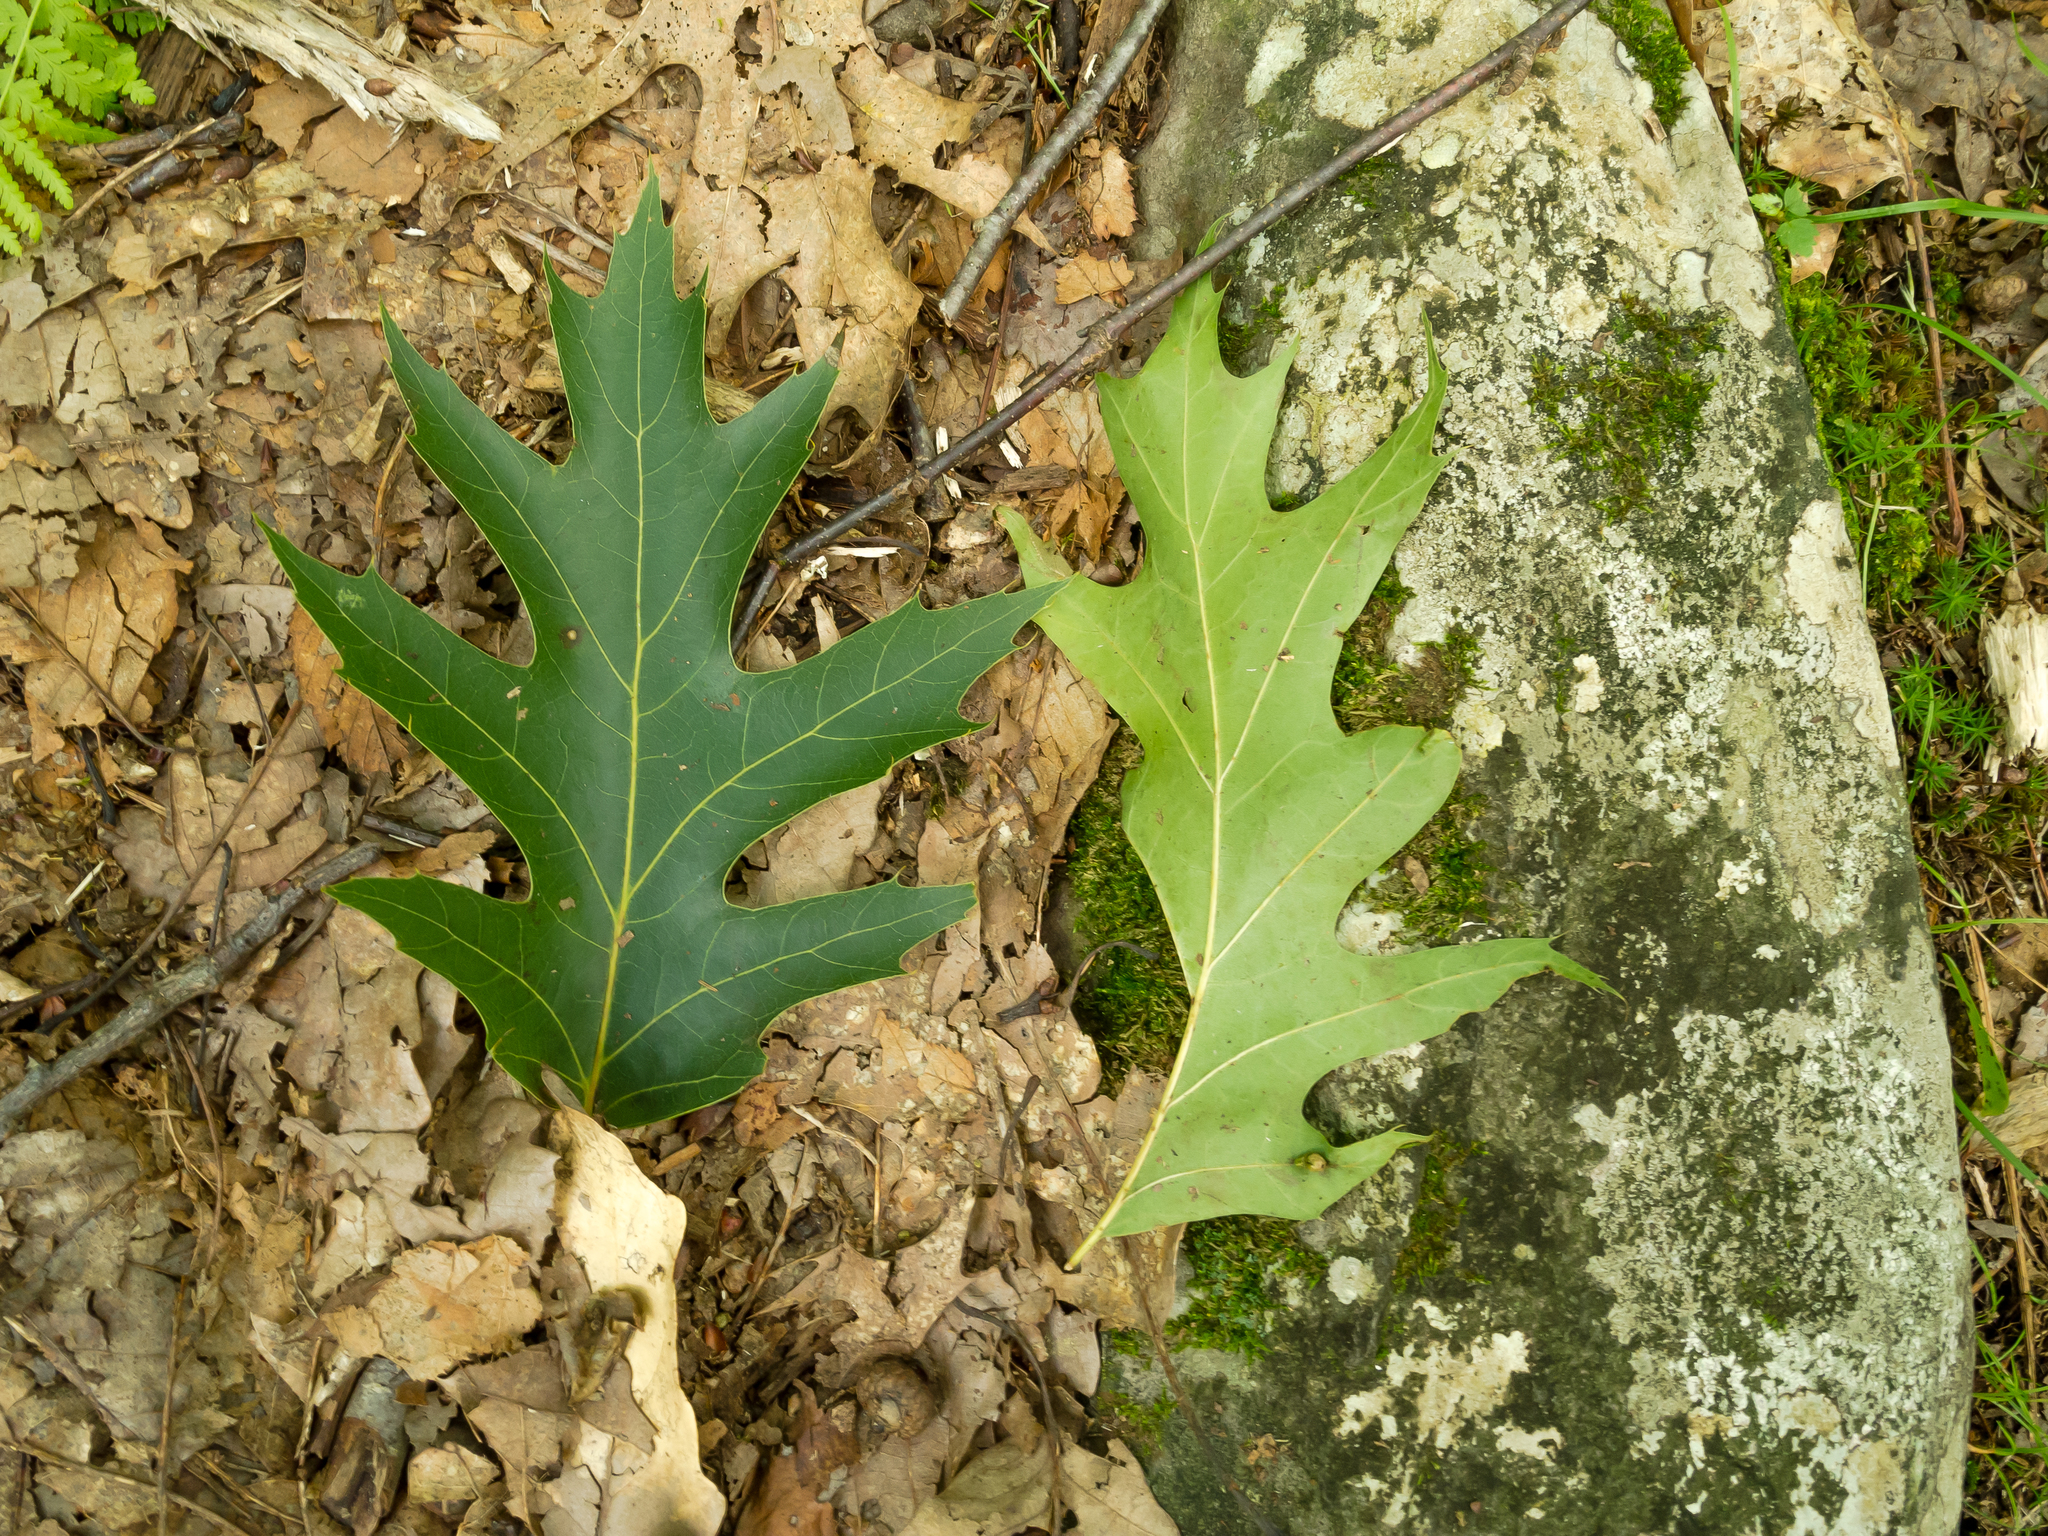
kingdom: Plantae
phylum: Tracheophyta
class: Magnoliopsida
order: Fagales
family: Fagaceae
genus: Quercus
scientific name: Quercus velutina
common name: Black oak
